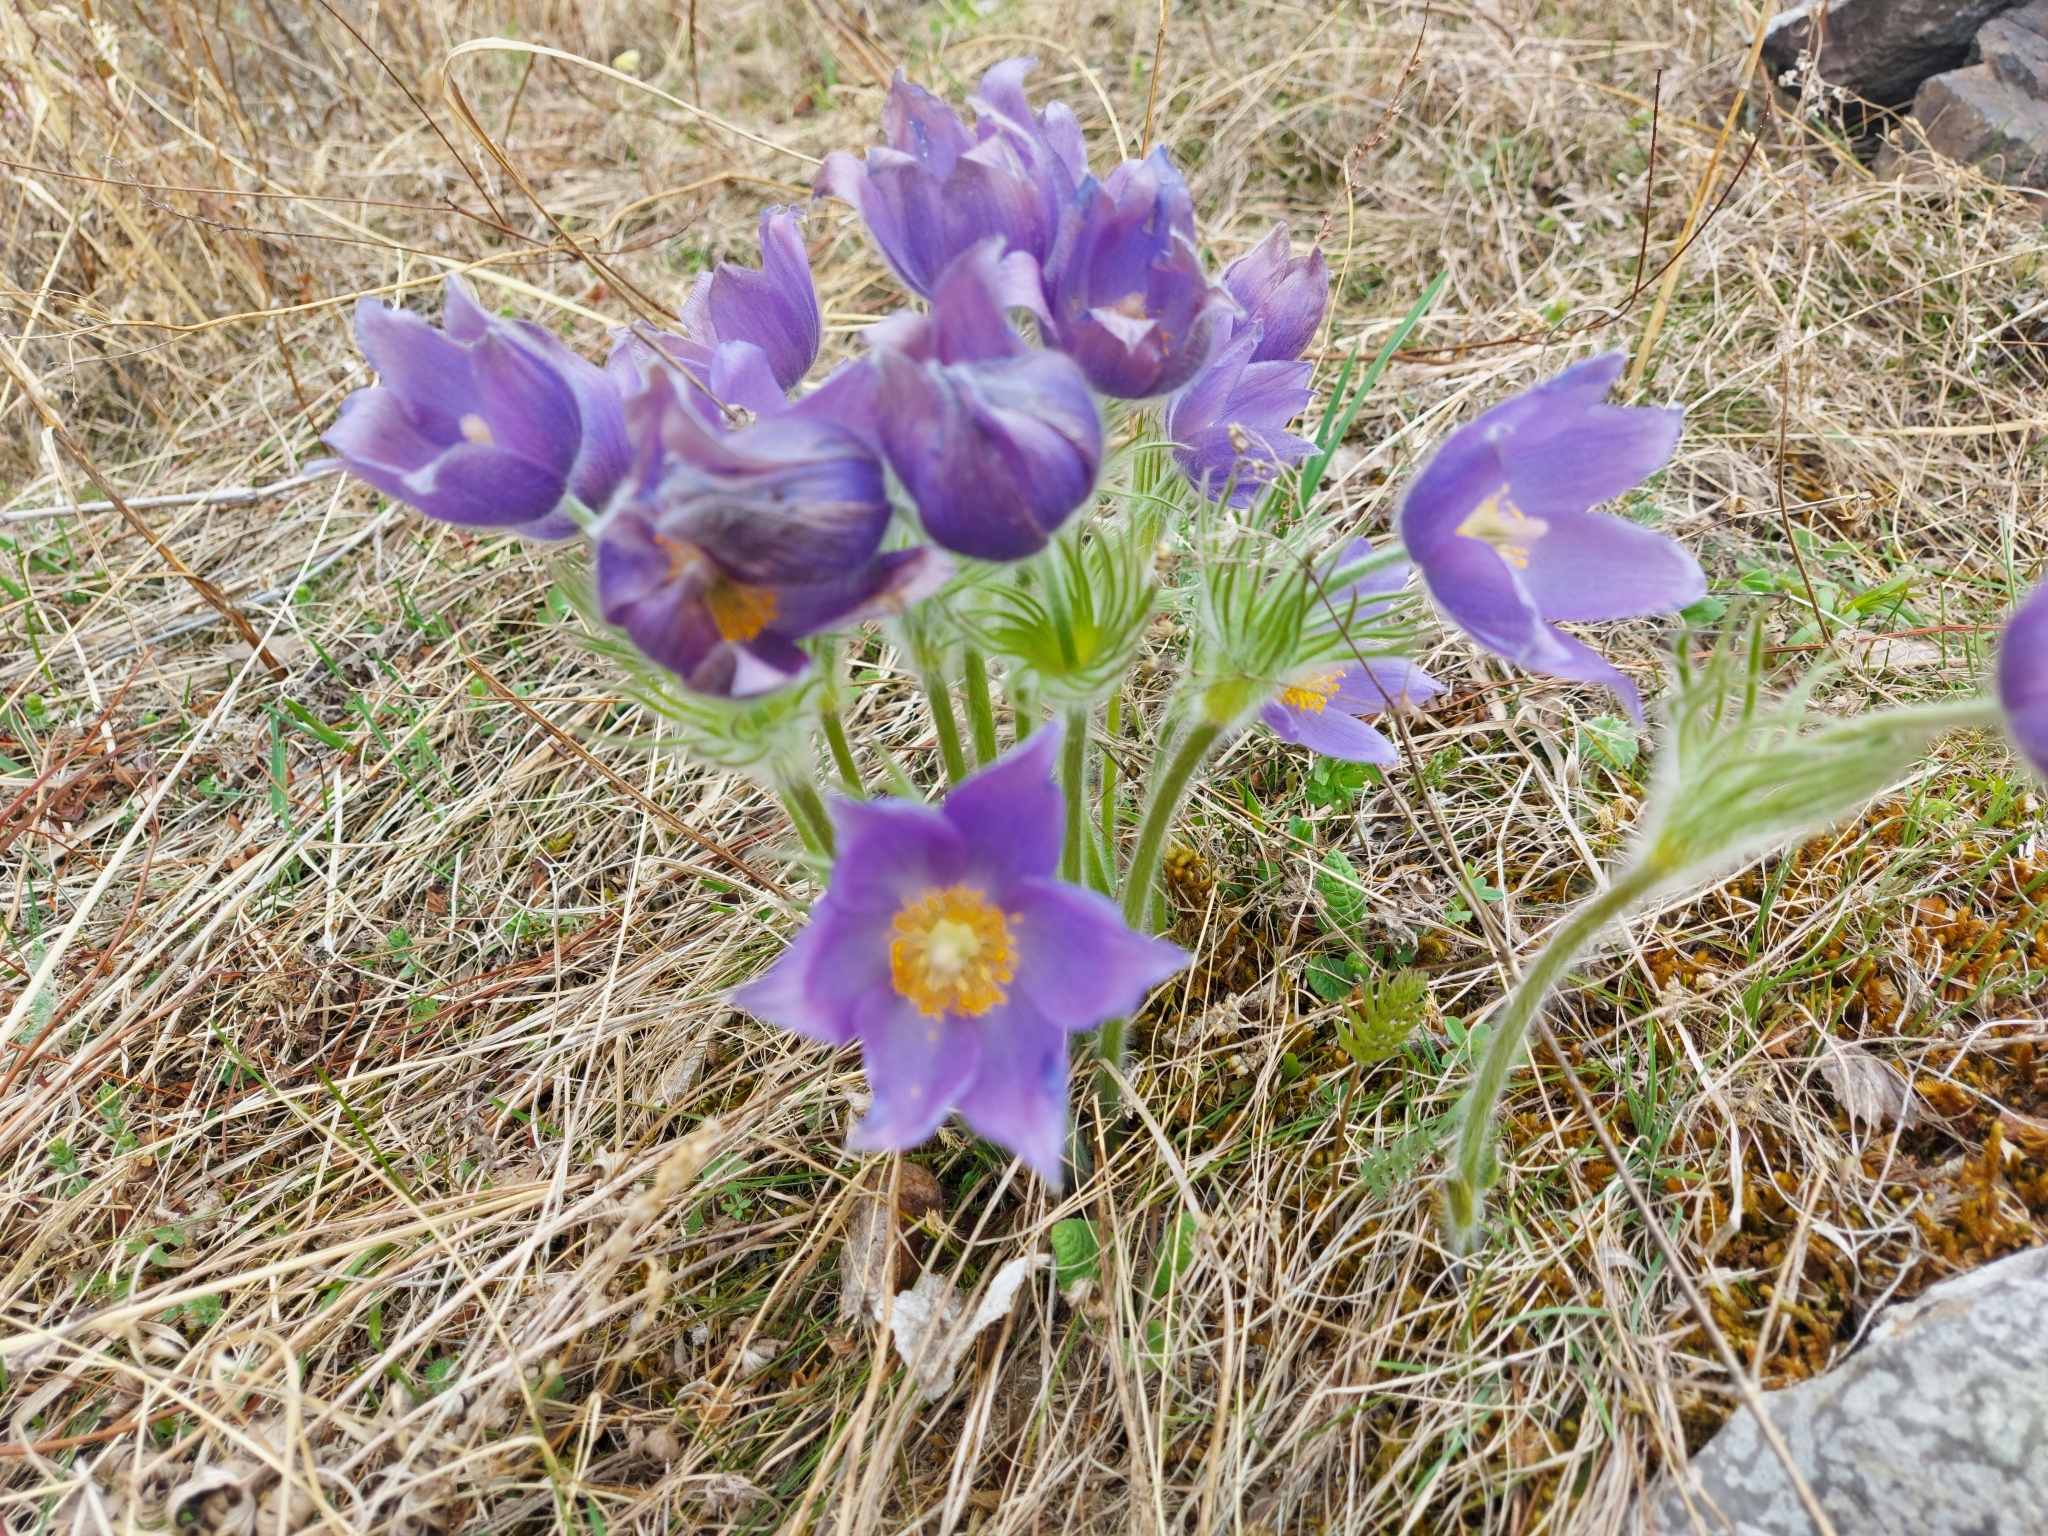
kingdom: Plantae
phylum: Tracheophyta
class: Magnoliopsida
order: Ranunculales
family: Ranunculaceae
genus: Pulsatilla
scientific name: Pulsatilla patens
